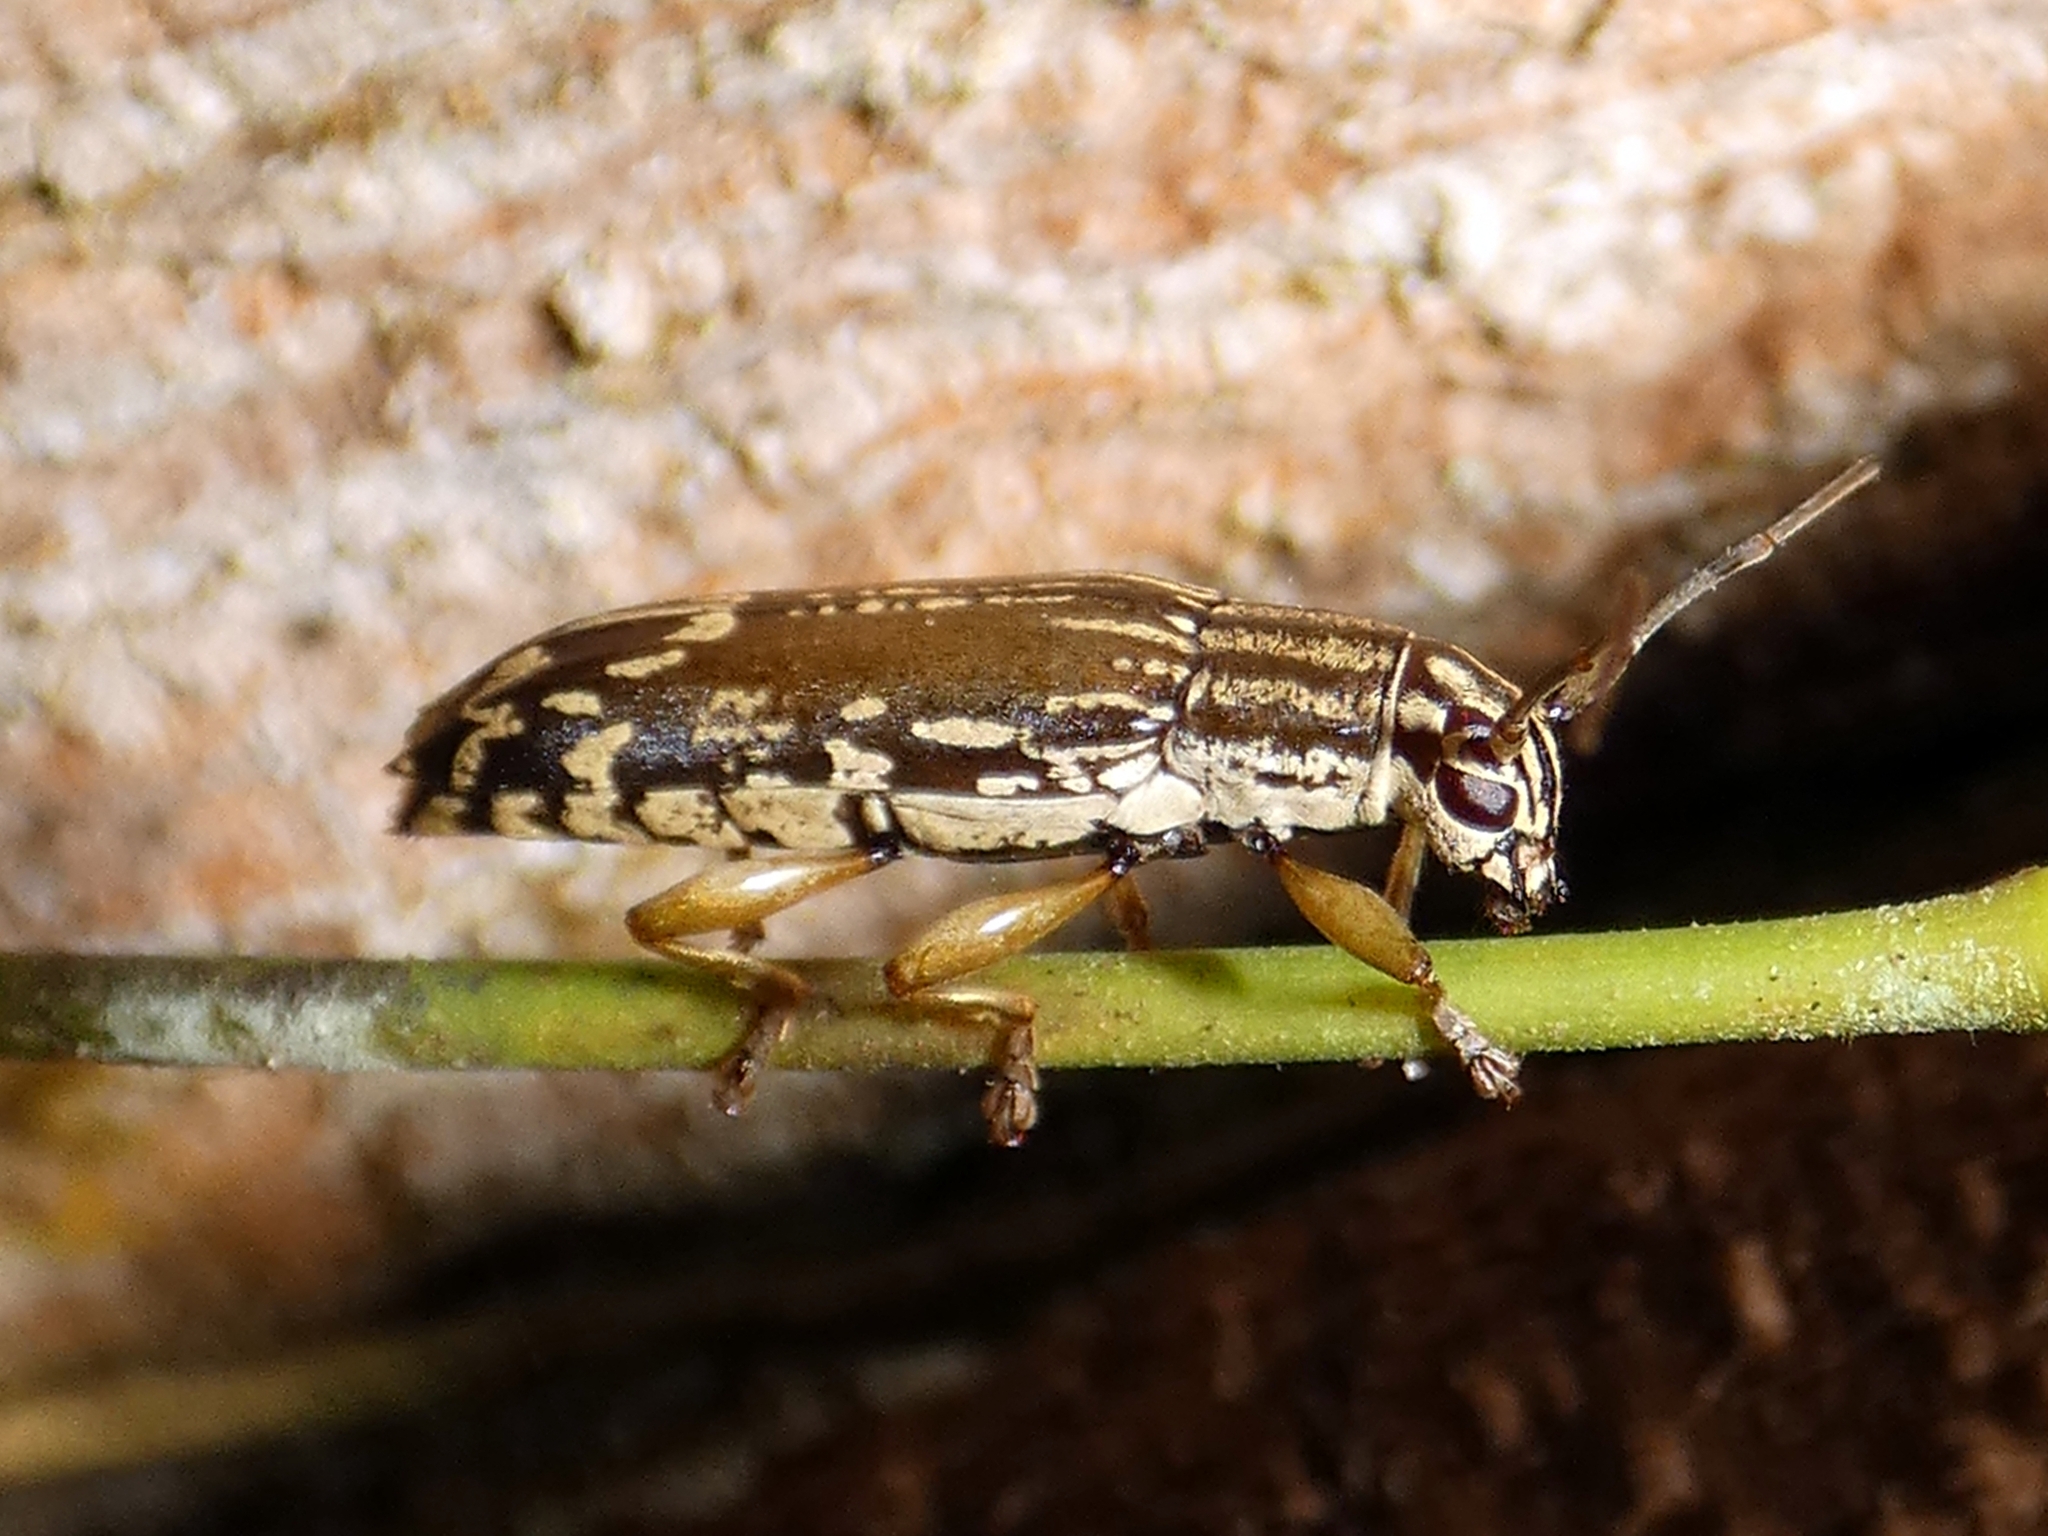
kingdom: Animalia
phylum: Arthropoda
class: Insecta
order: Coleoptera
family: Cerambycidae
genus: Tmesisternus
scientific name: Tmesisternus monticola
